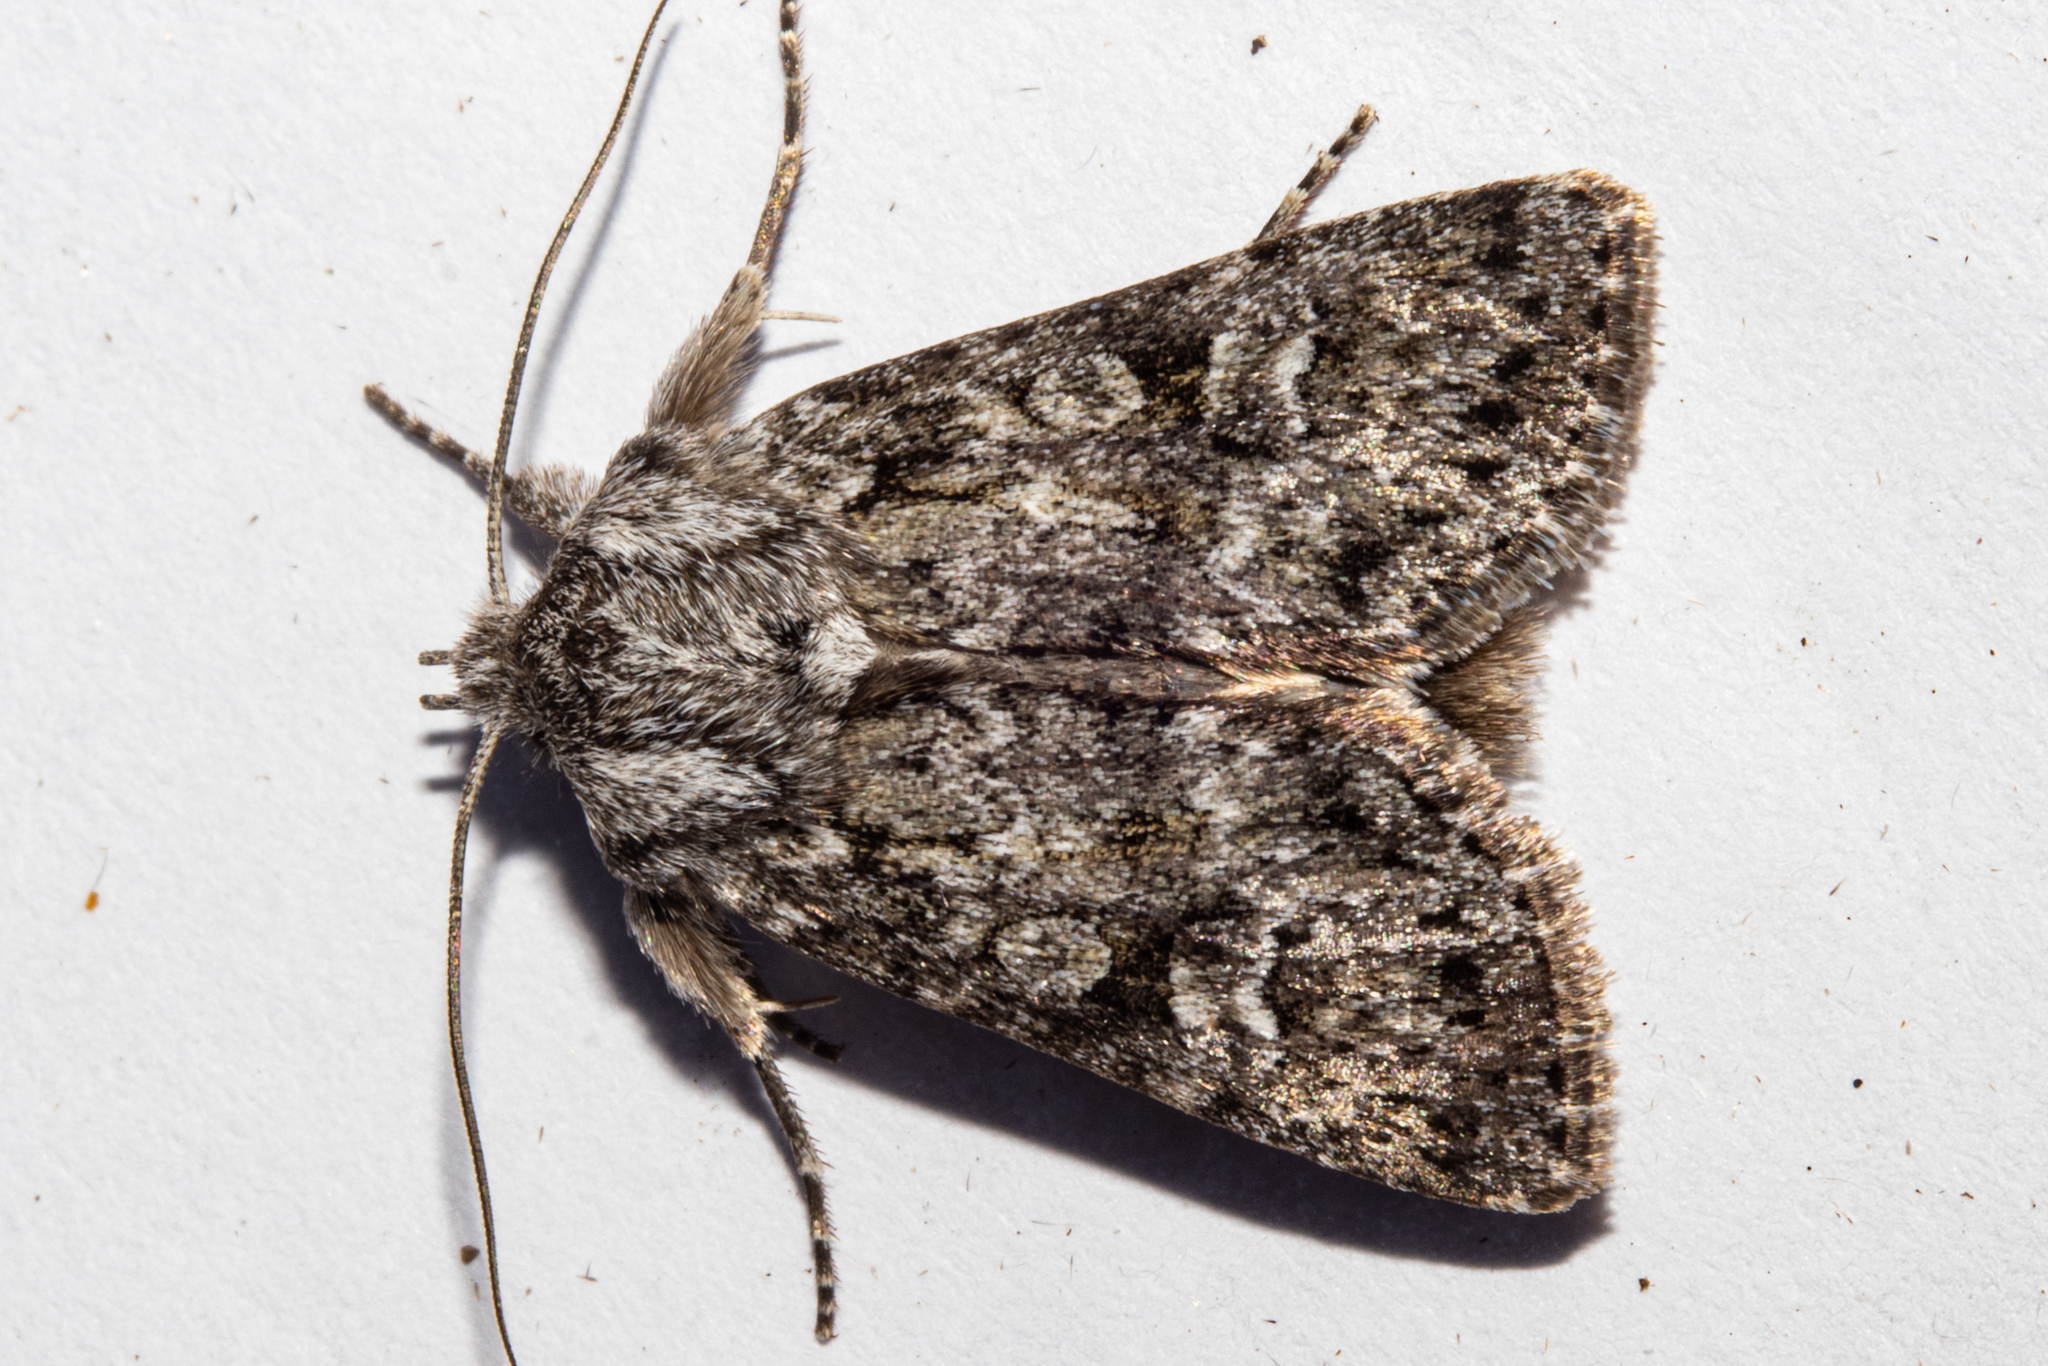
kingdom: Animalia
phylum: Arthropoda
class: Insecta
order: Lepidoptera
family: Noctuidae
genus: Physetica
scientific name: Physetica cucullina
